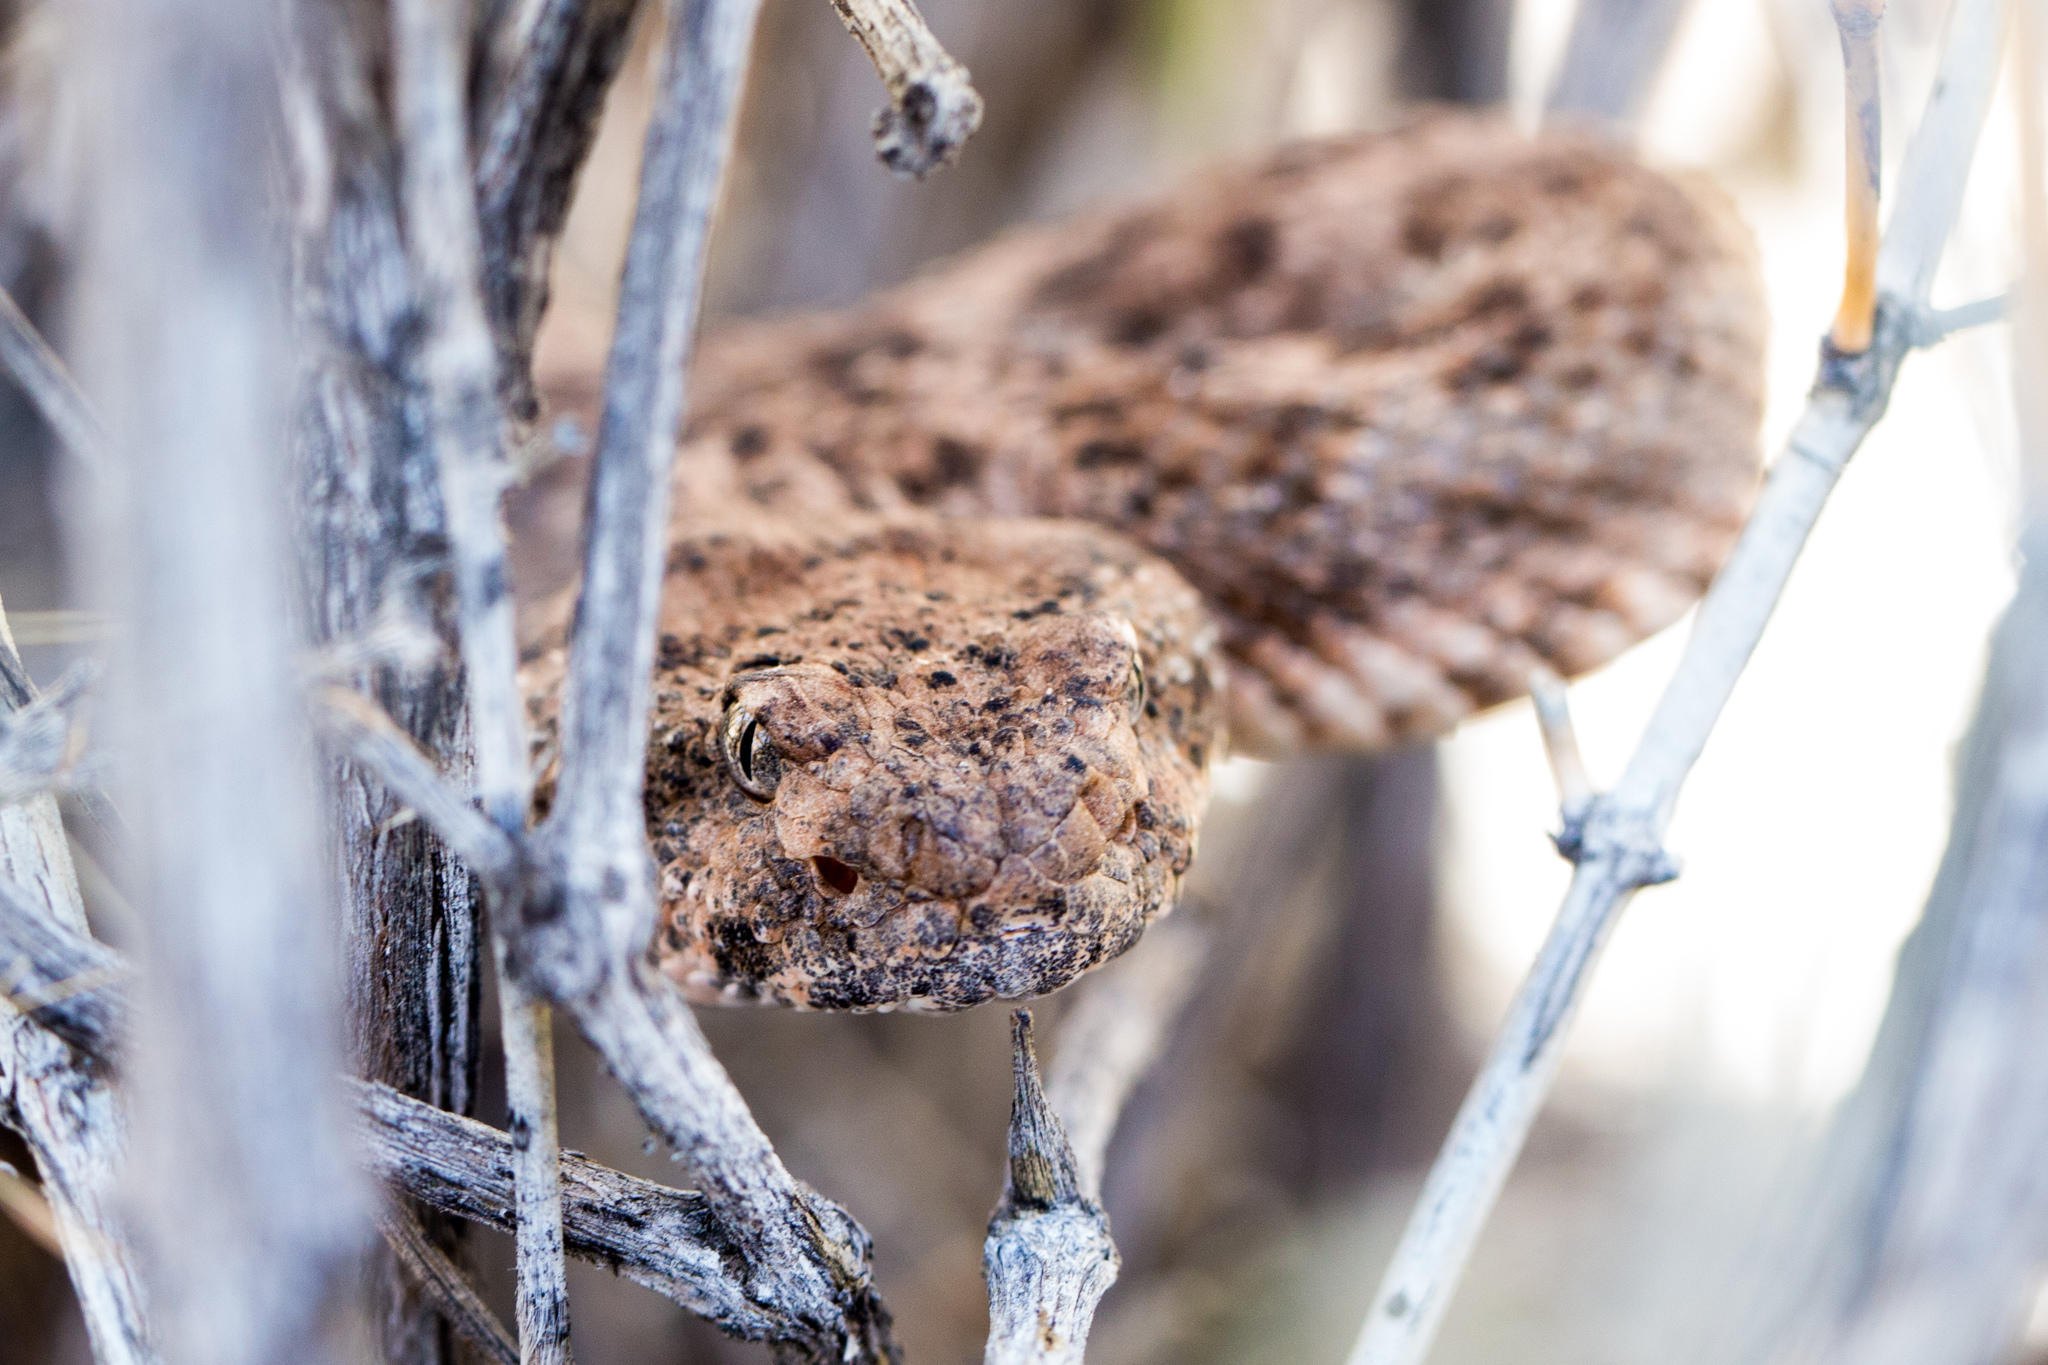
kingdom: Animalia
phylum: Chordata
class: Squamata
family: Viperidae
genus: Crotalus
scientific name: Crotalus pyrrhus
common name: Southwestern speckled rattlesnake
